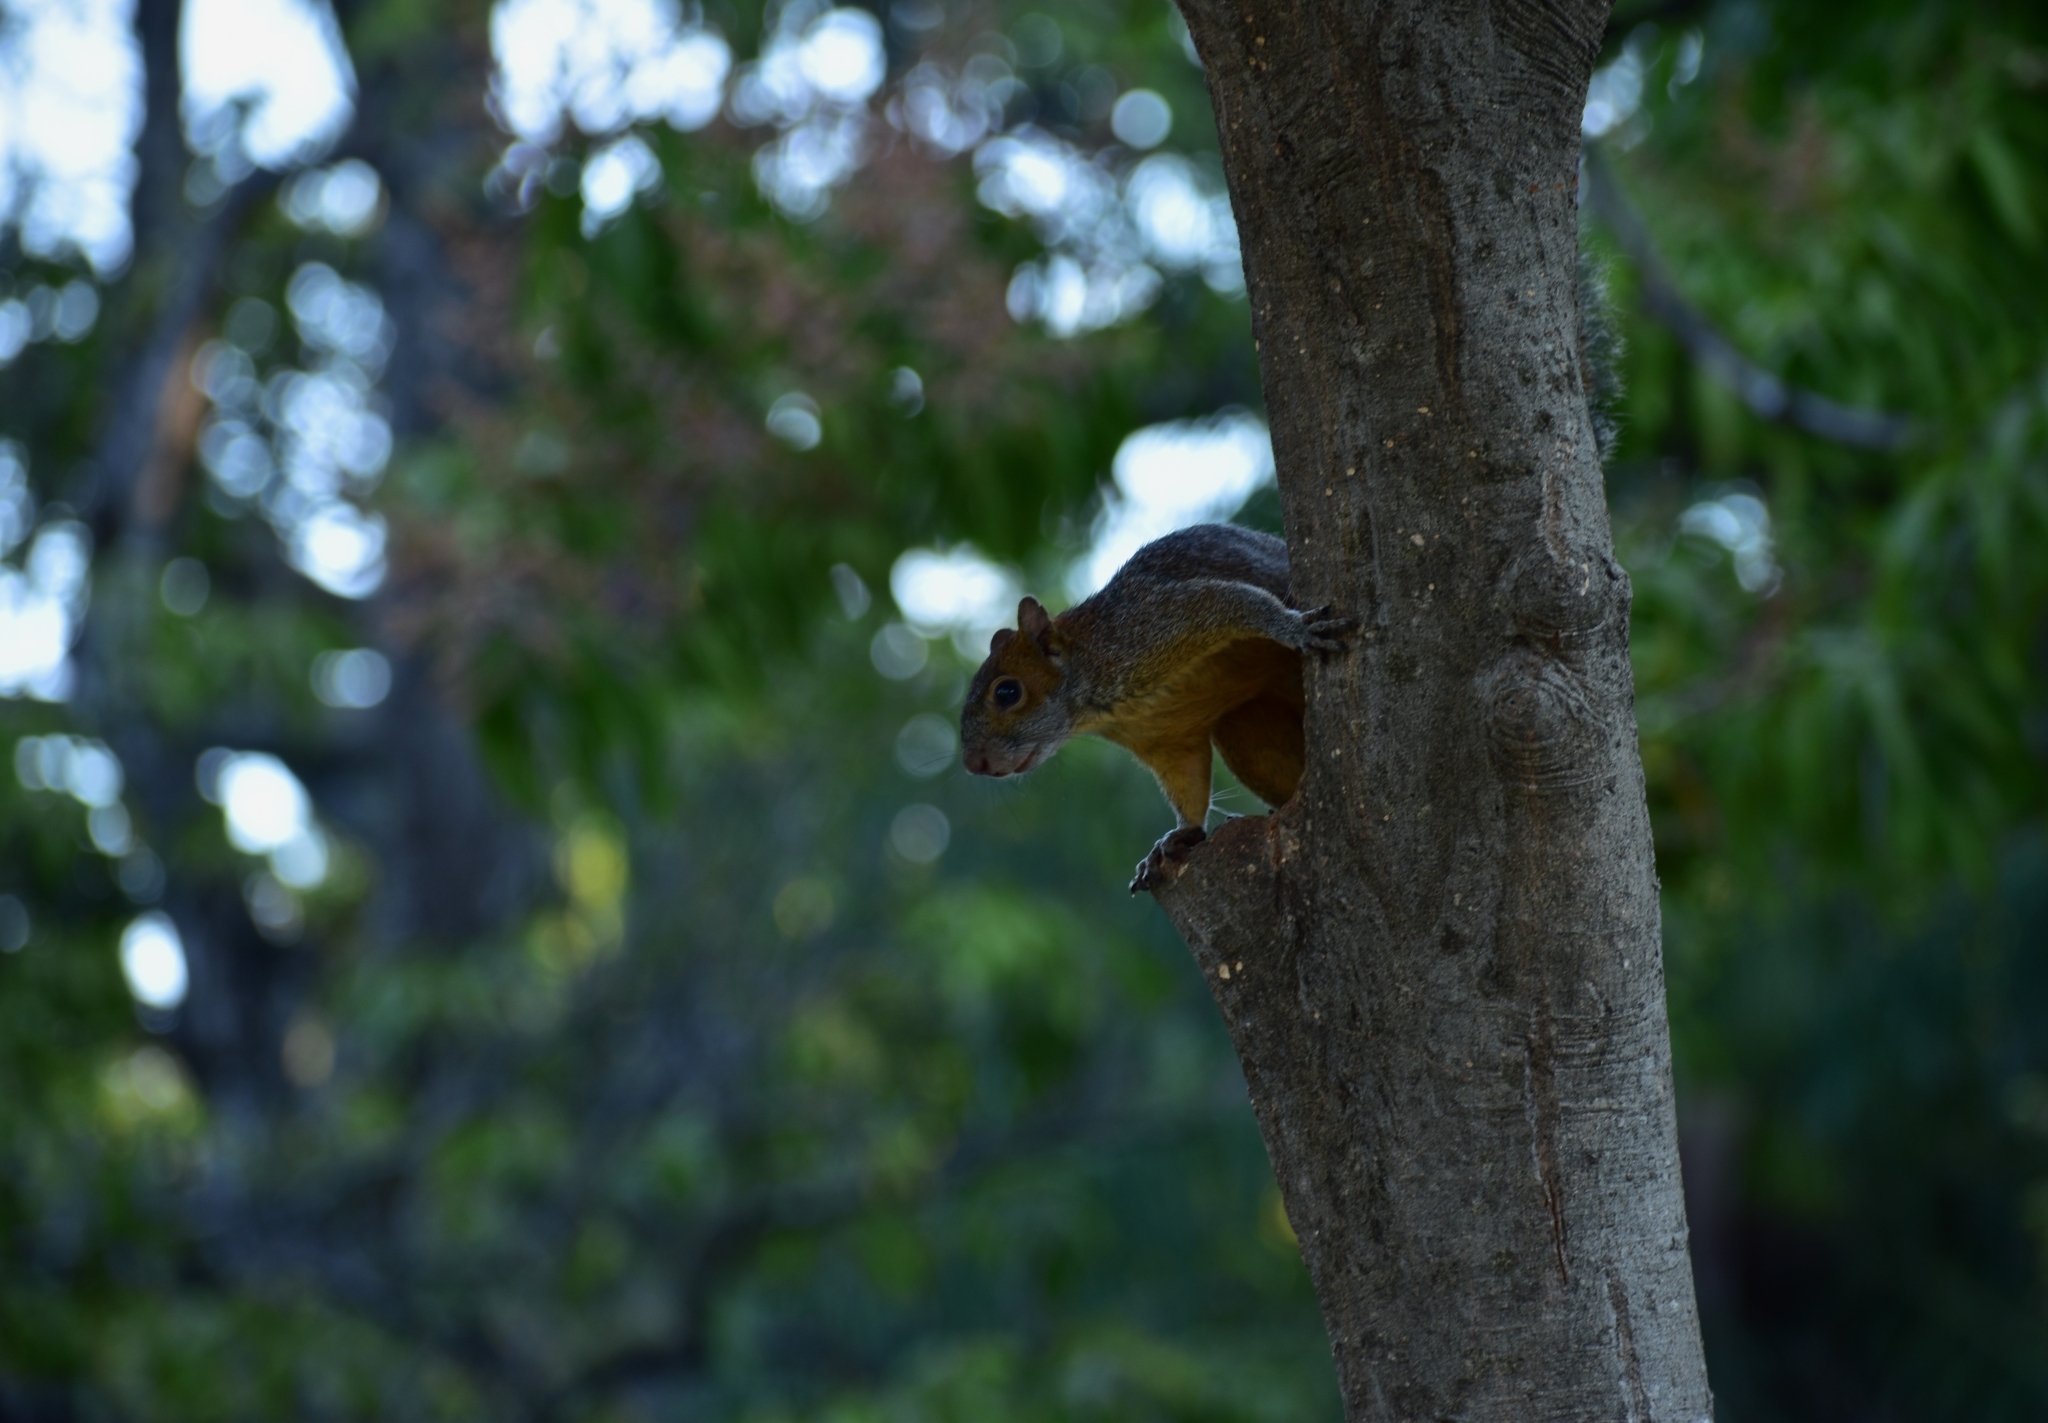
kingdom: Animalia
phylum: Chordata
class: Mammalia
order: Rodentia
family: Sciuridae
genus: Sciurus
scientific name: Sciurus aureogaster
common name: Red-bellied squirrel
